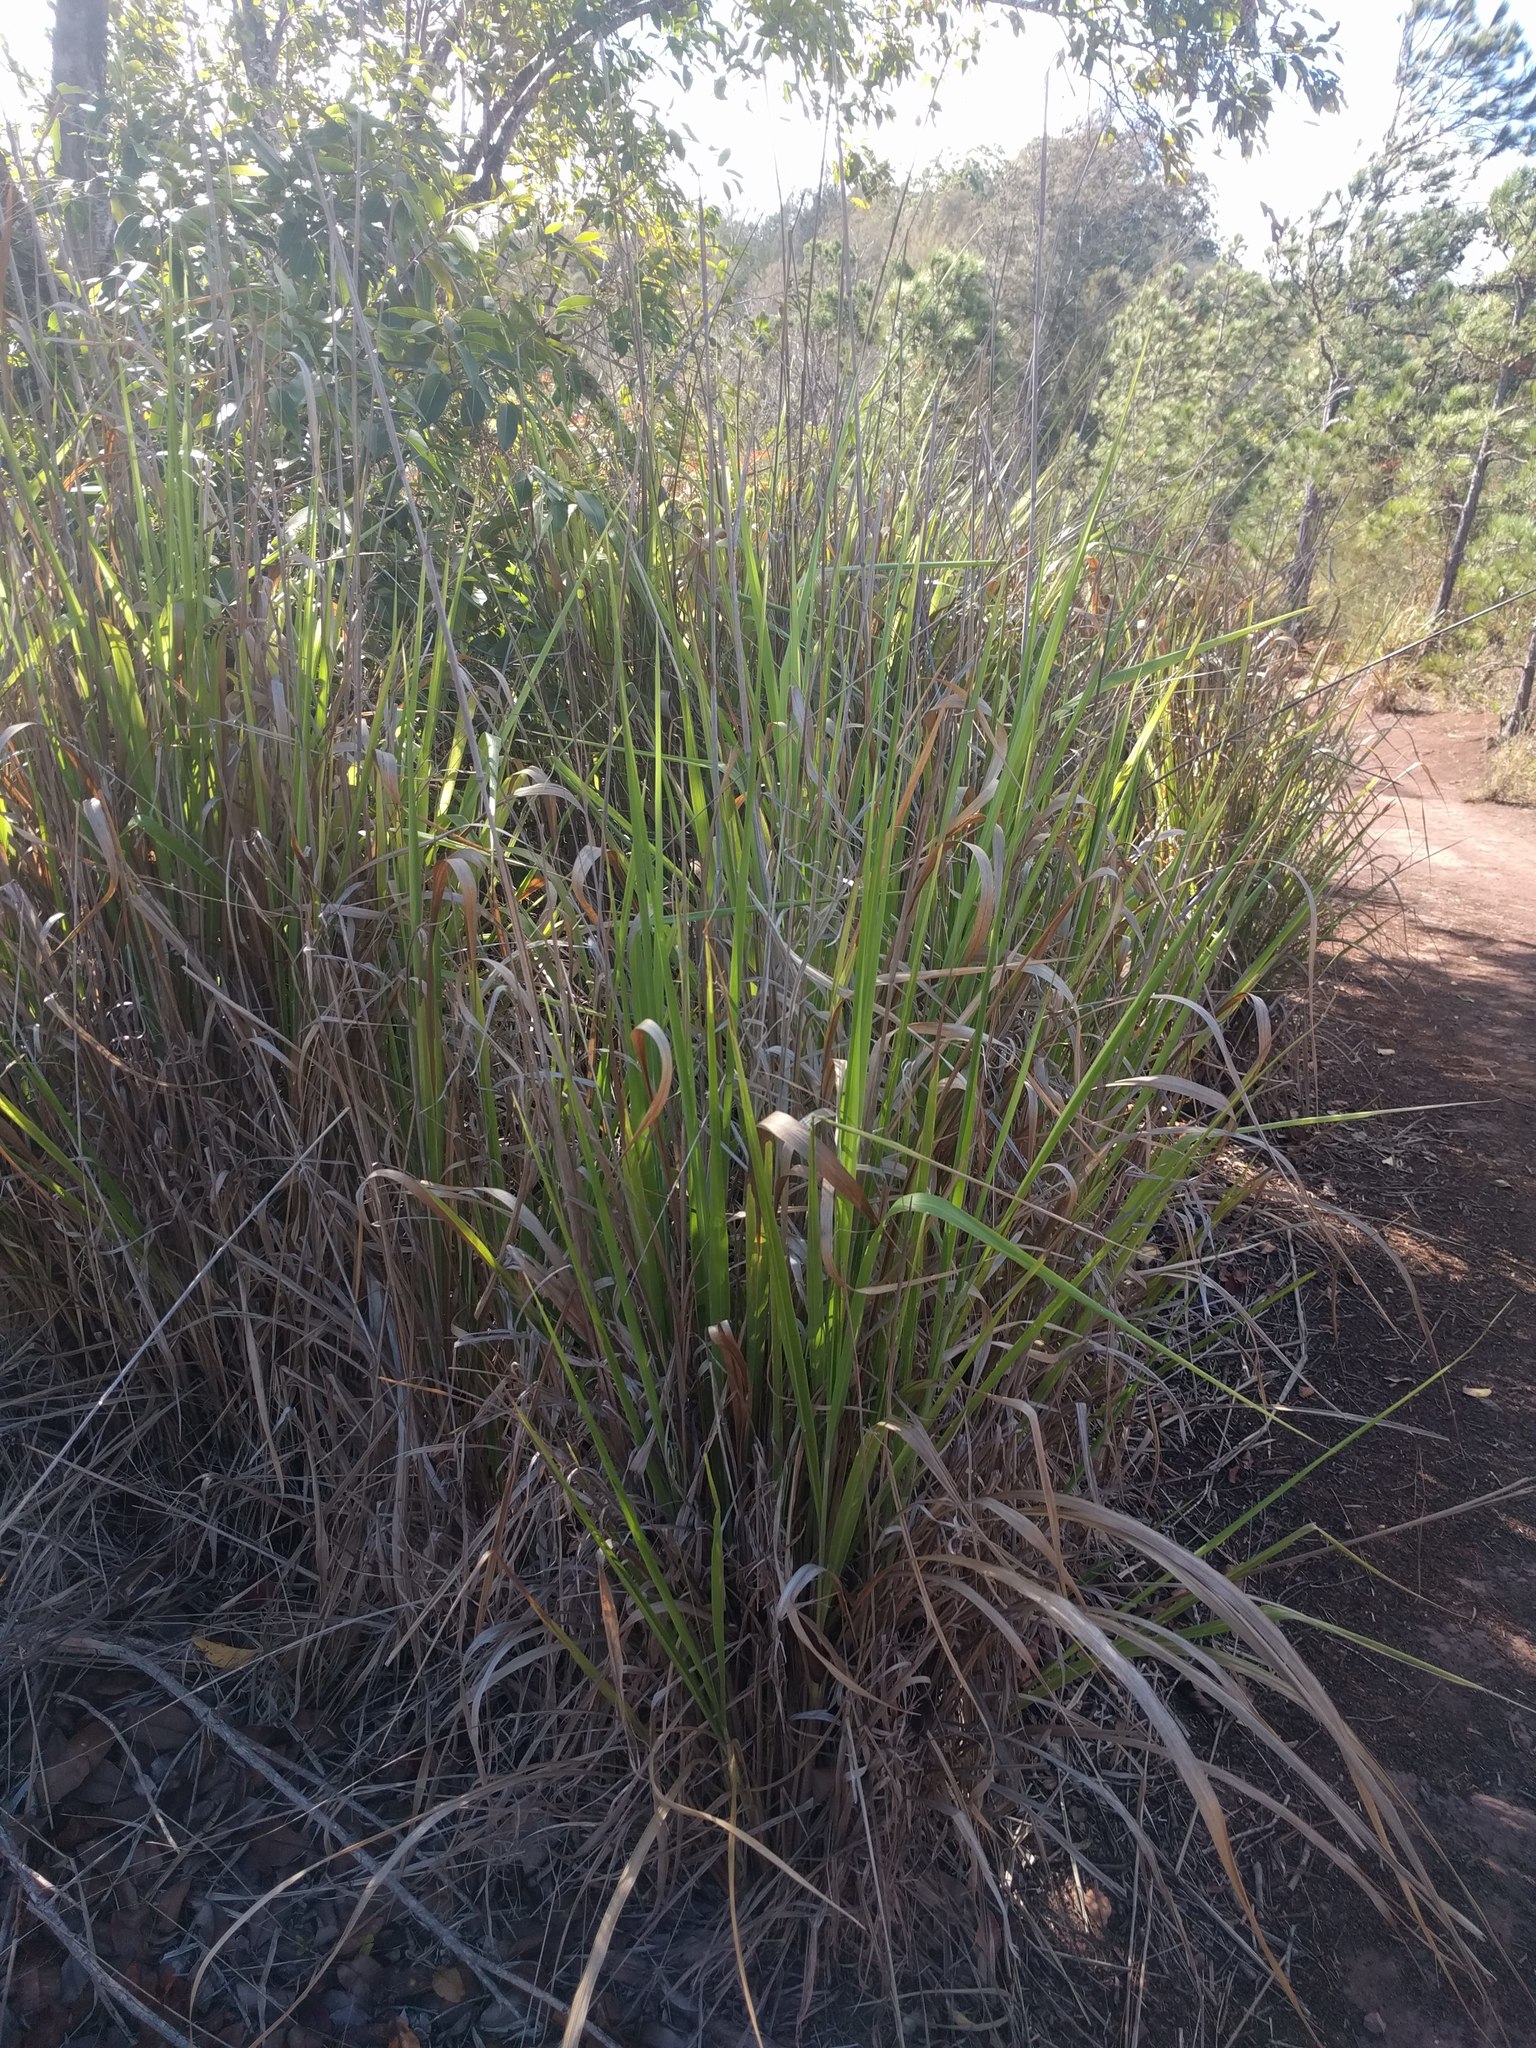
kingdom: Plantae
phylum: Tracheophyta
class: Liliopsida
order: Poales
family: Poaceae
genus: Megathyrsus
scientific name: Megathyrsus maximus
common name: Guineagrass
